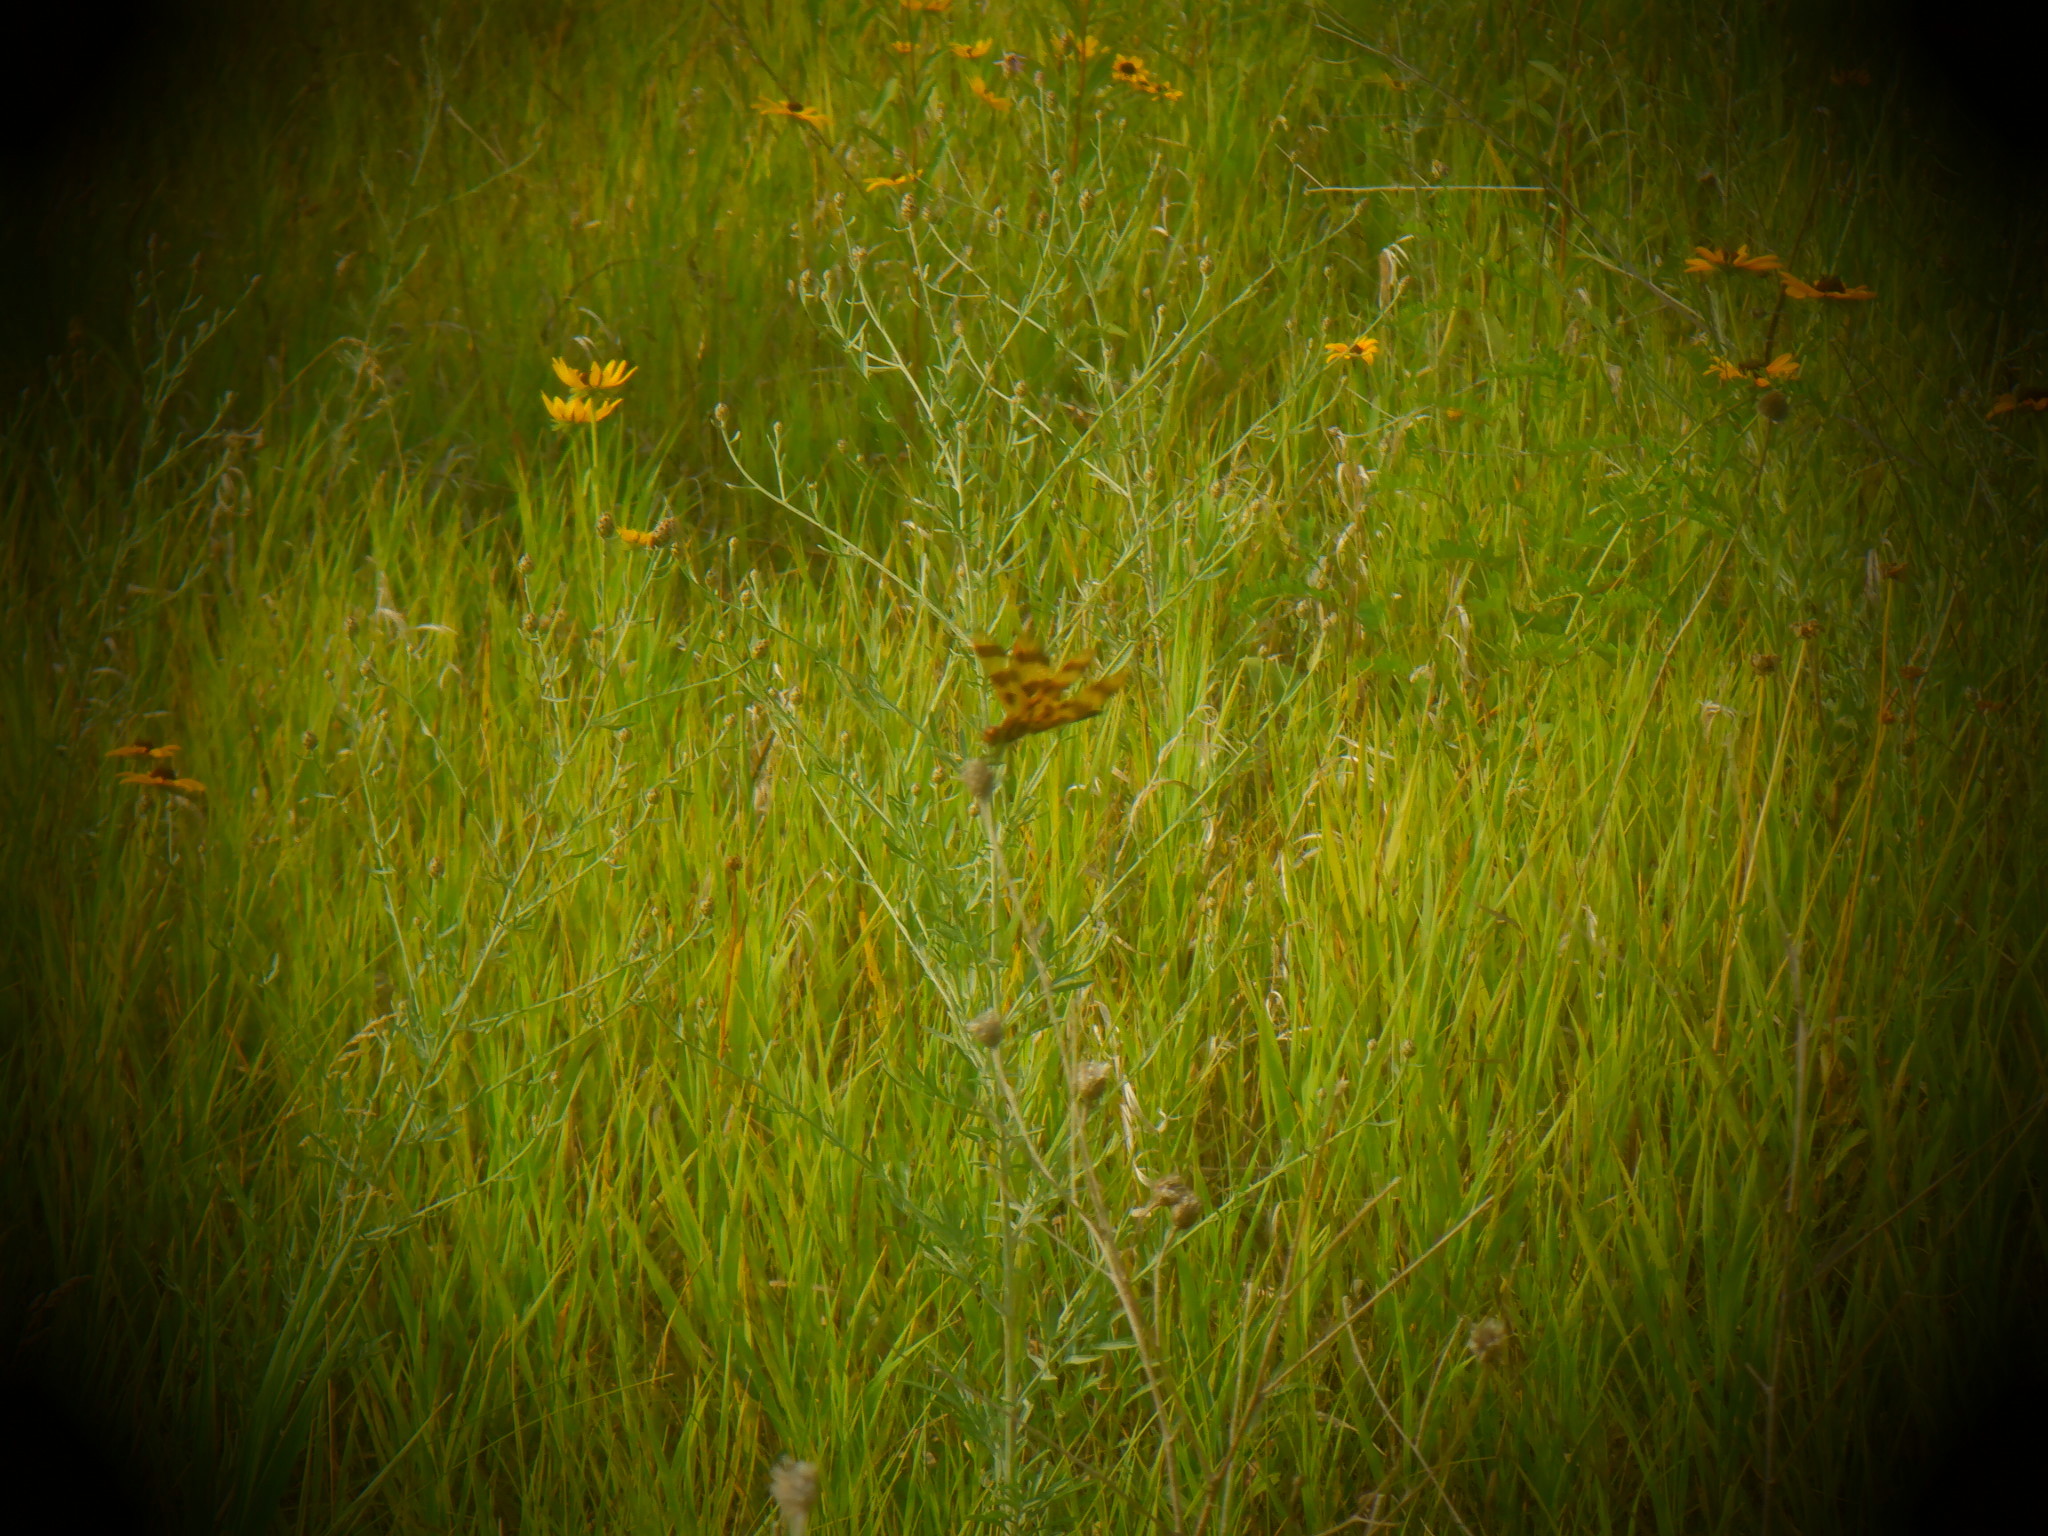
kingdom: Animalia
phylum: Arthropoda
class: Insecta
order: Odonata
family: Libellulidae
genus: Celithemis
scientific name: Celithemis eponina
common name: Halloween pennant
